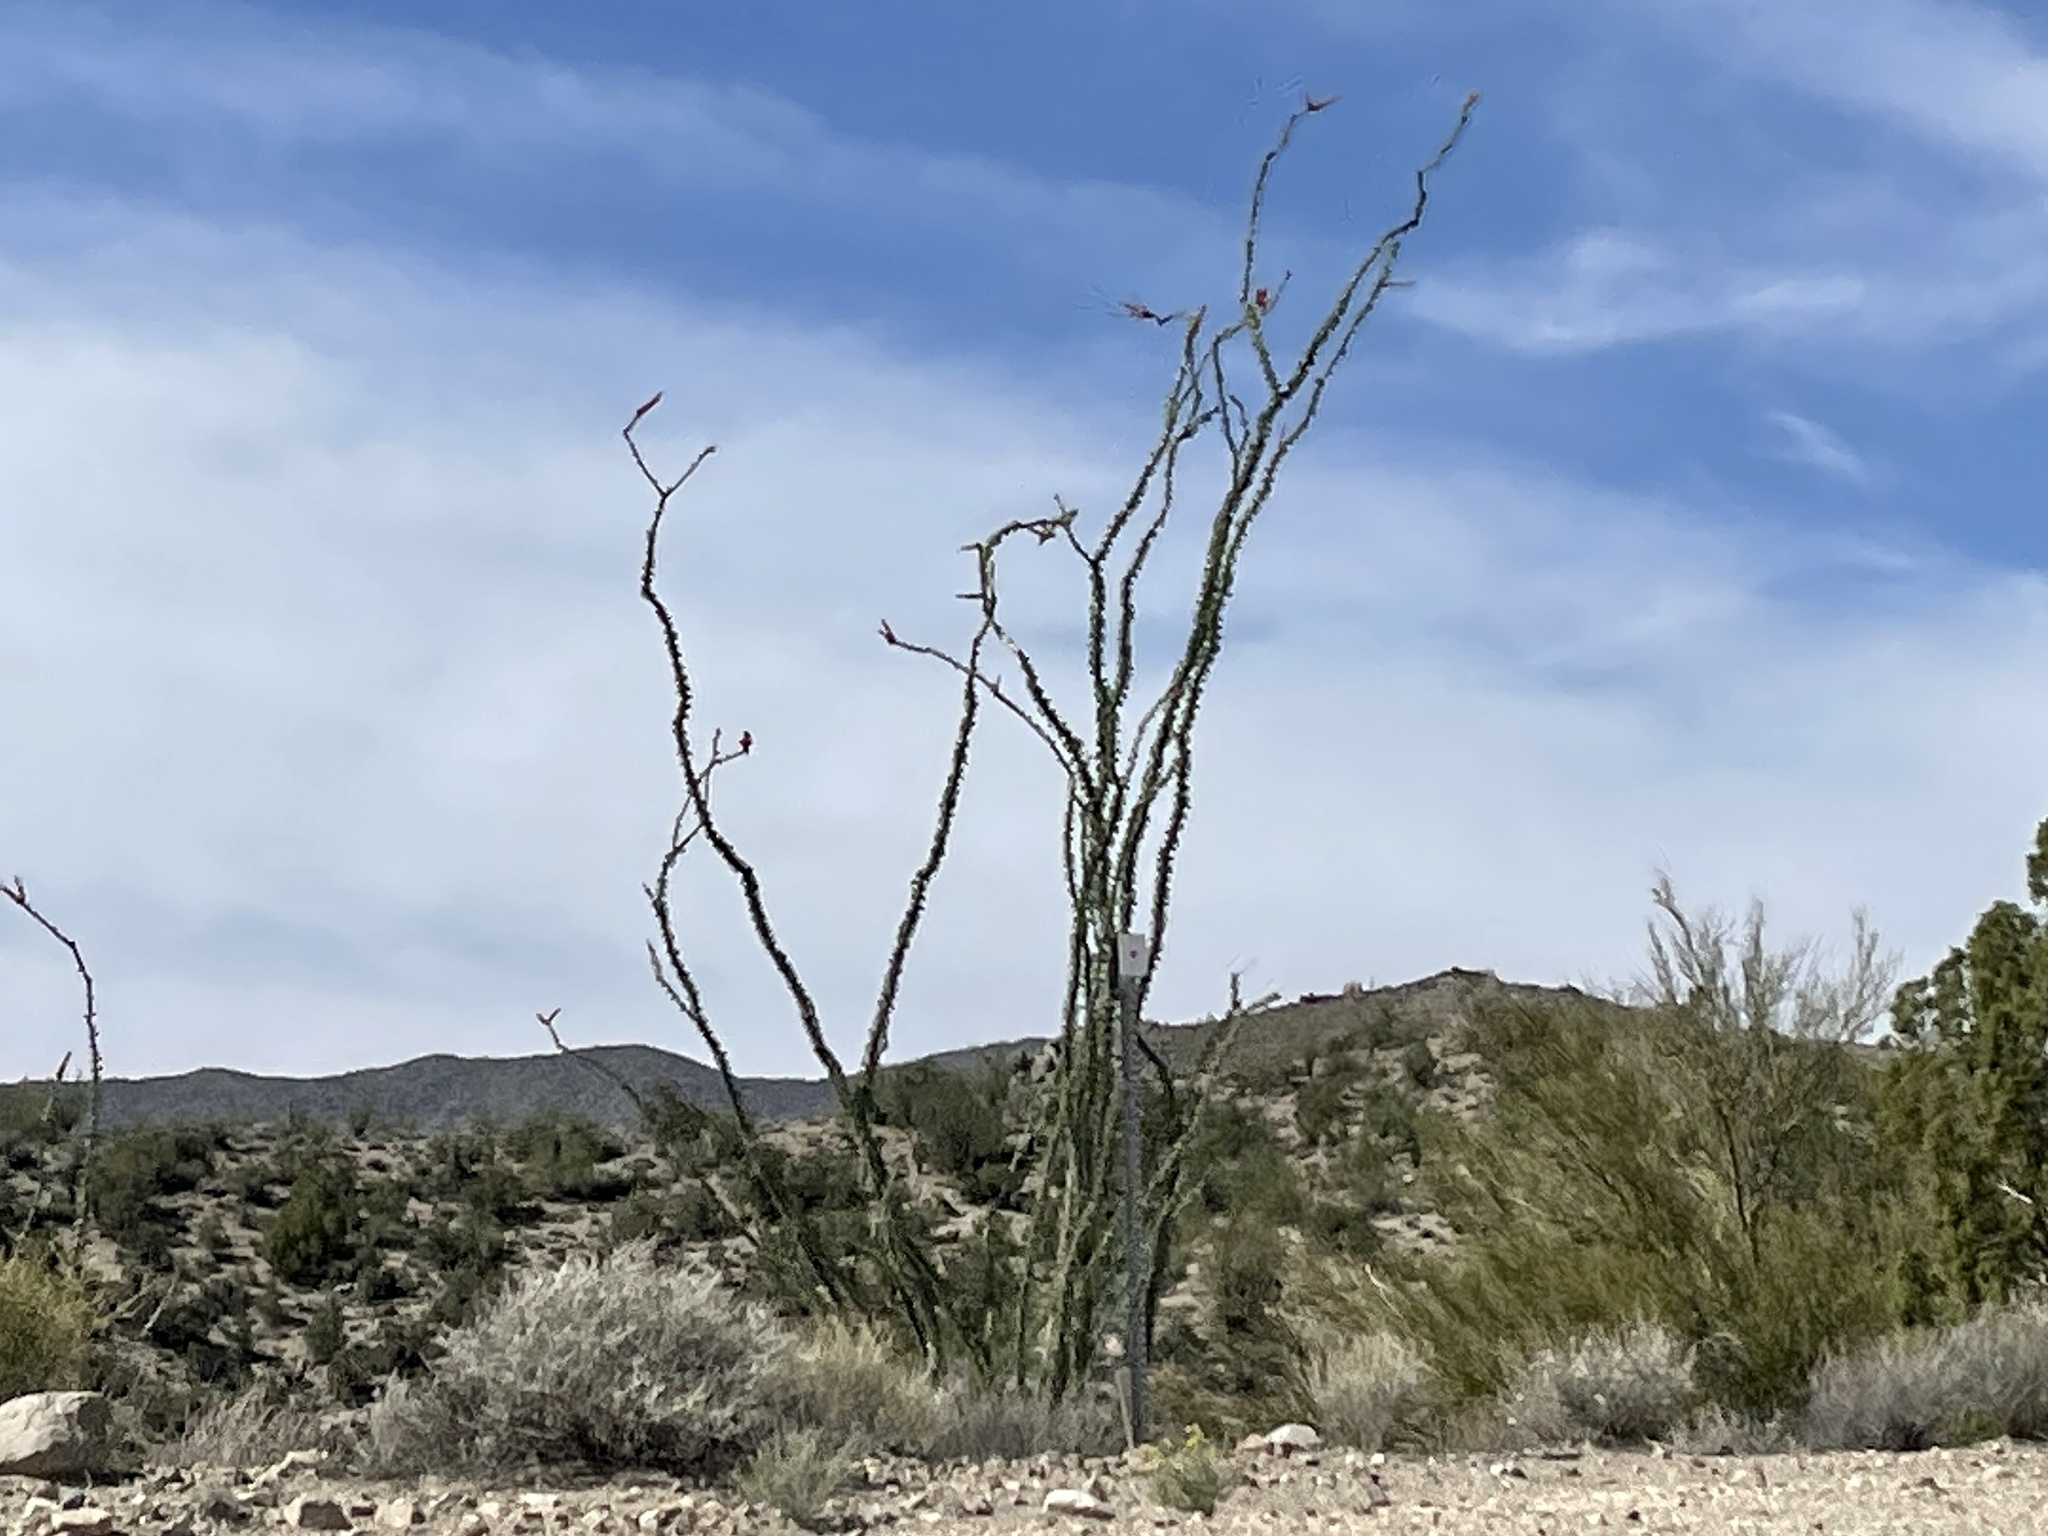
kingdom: Plantae
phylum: Tracheophyta
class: Magnoliopsida
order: Ericales
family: Fouquieriaceae
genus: Fouquieria
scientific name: Fouquieria splendens
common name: Vine-cactus
